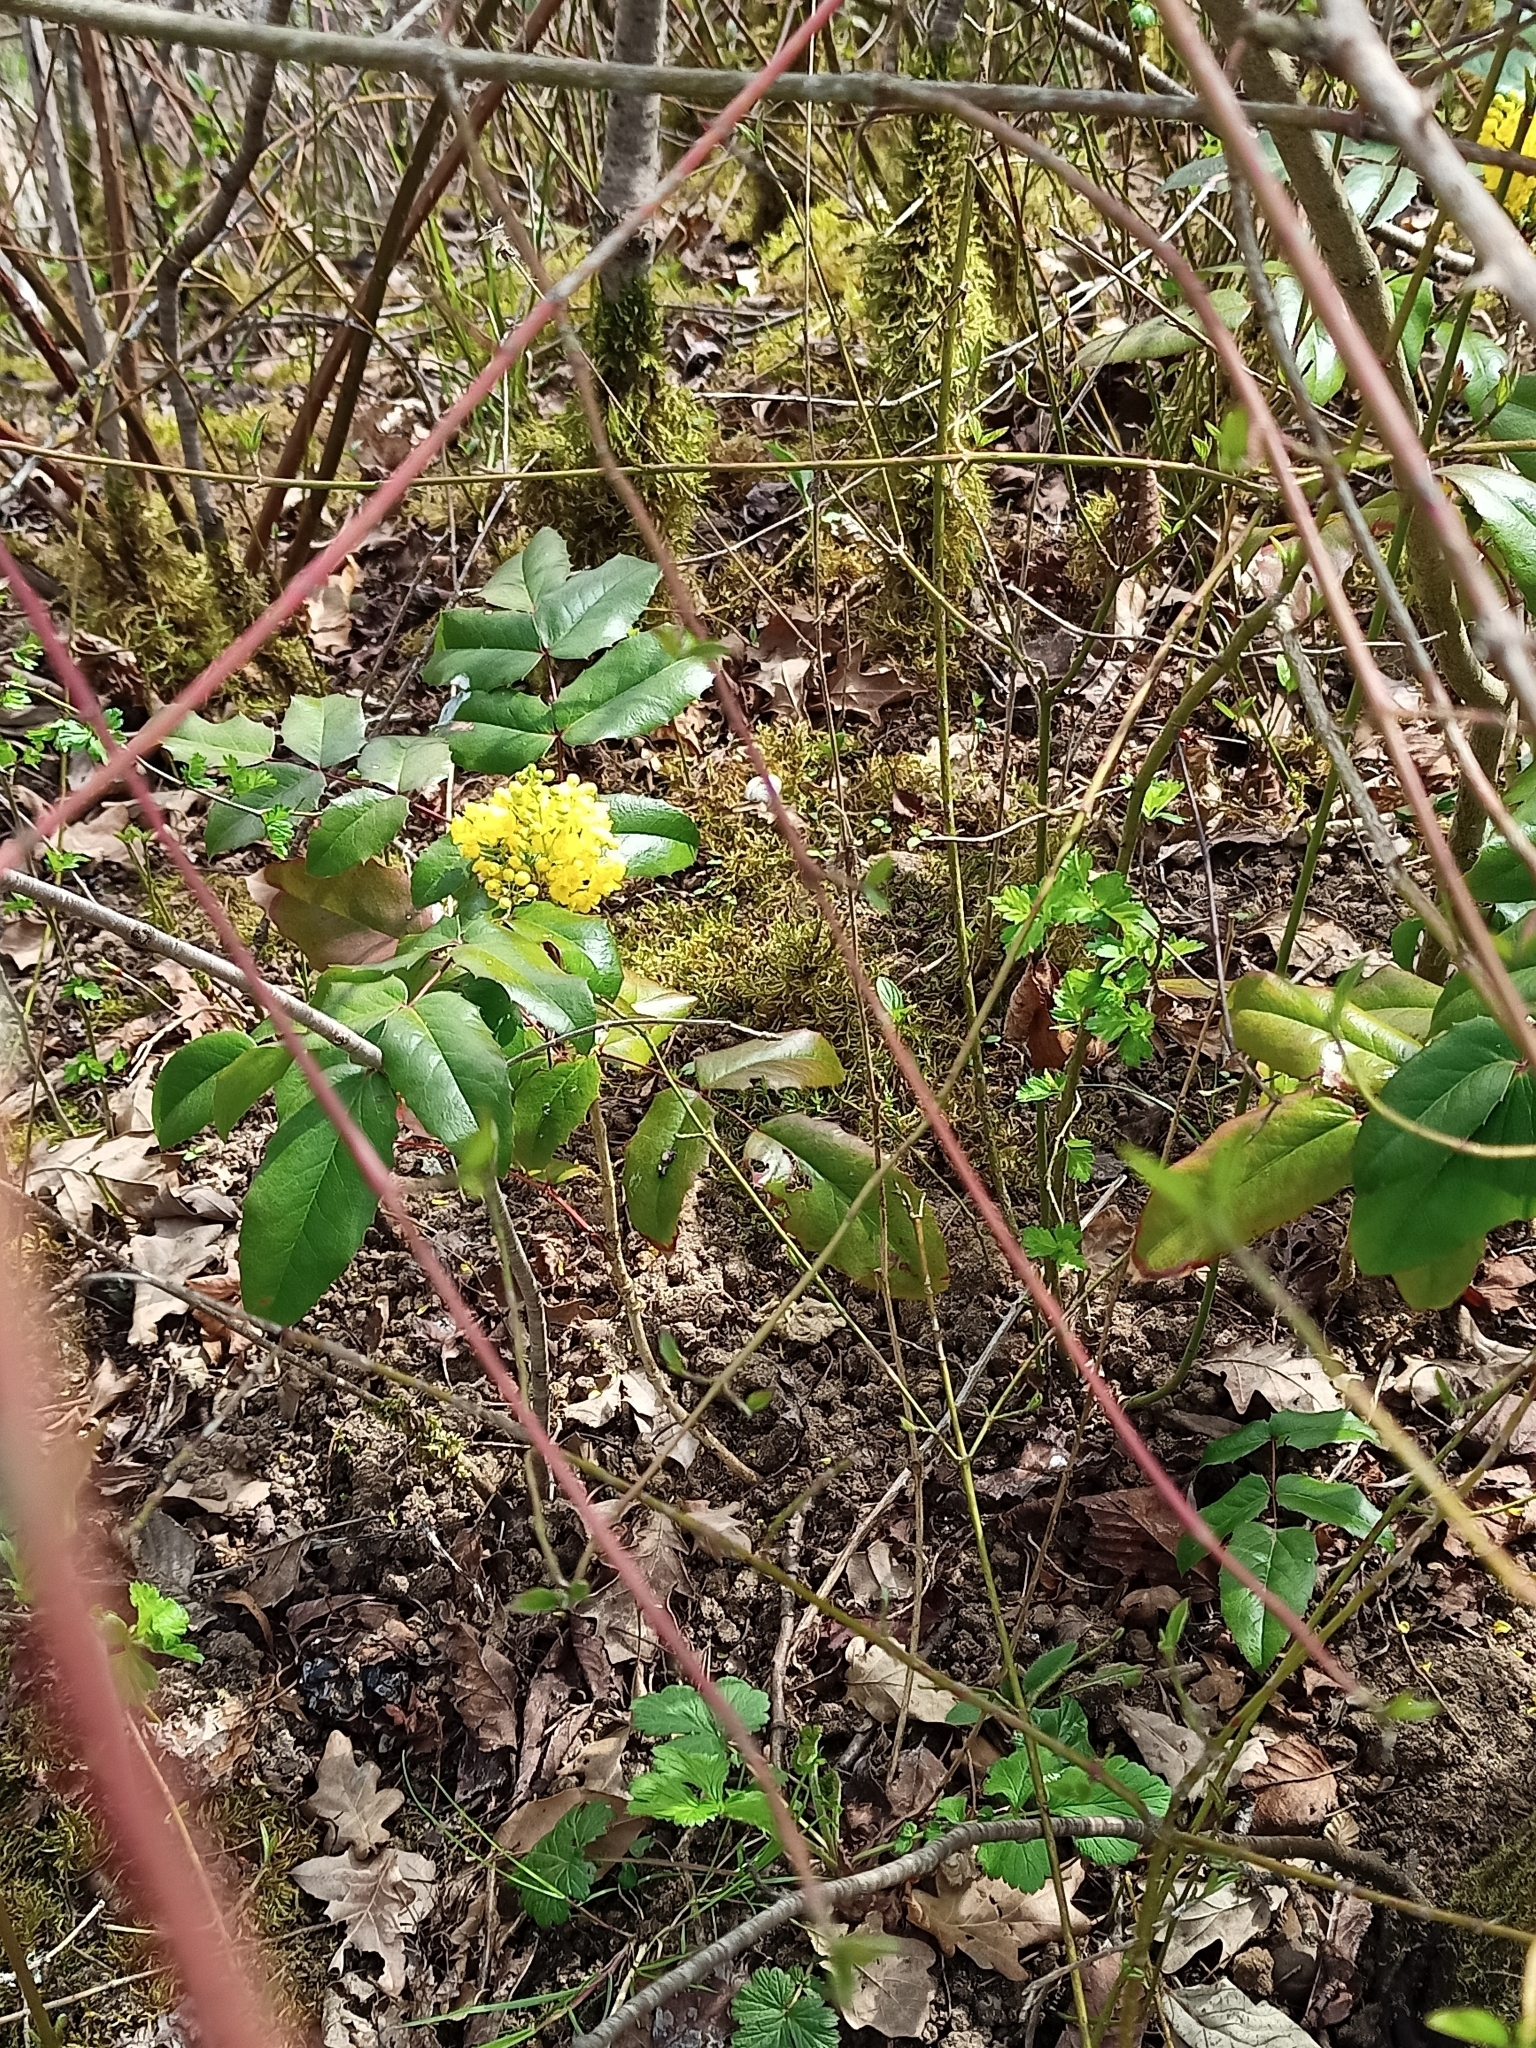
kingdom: Plantae
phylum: Tracheophyta
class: Magnoliopsida
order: Ranunculales
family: Berberidaceae
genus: Mahonia
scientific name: Mahonia aquifolium
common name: Oregon-grape
